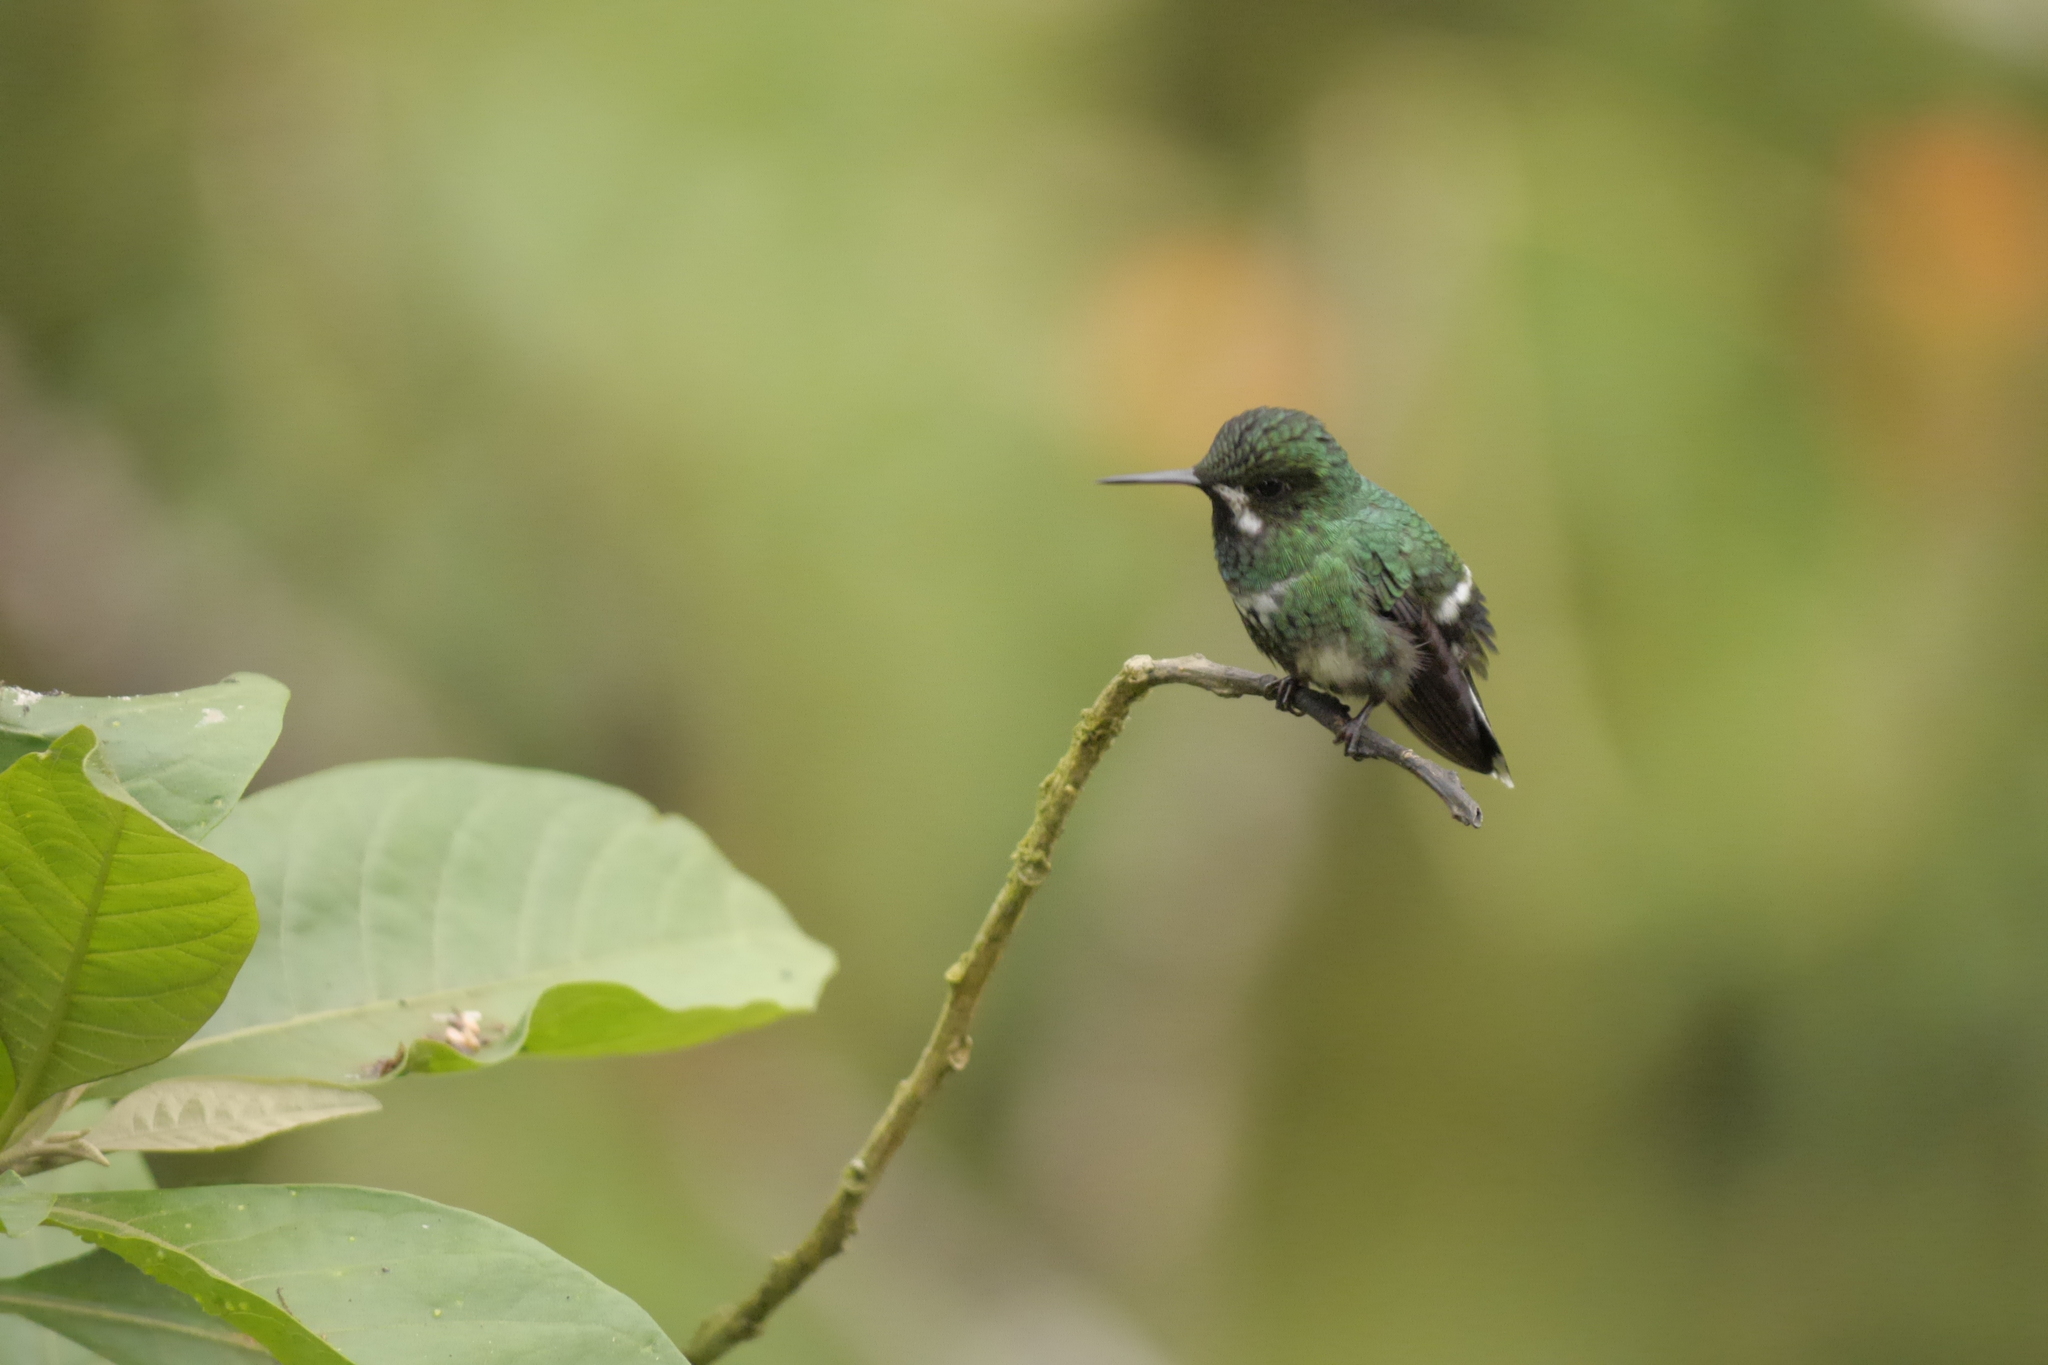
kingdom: Animalia
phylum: Chordata
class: Aves
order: Apodiformes
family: Trochilidae
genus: Discosura
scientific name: Discosura conversii
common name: Green thorntail
